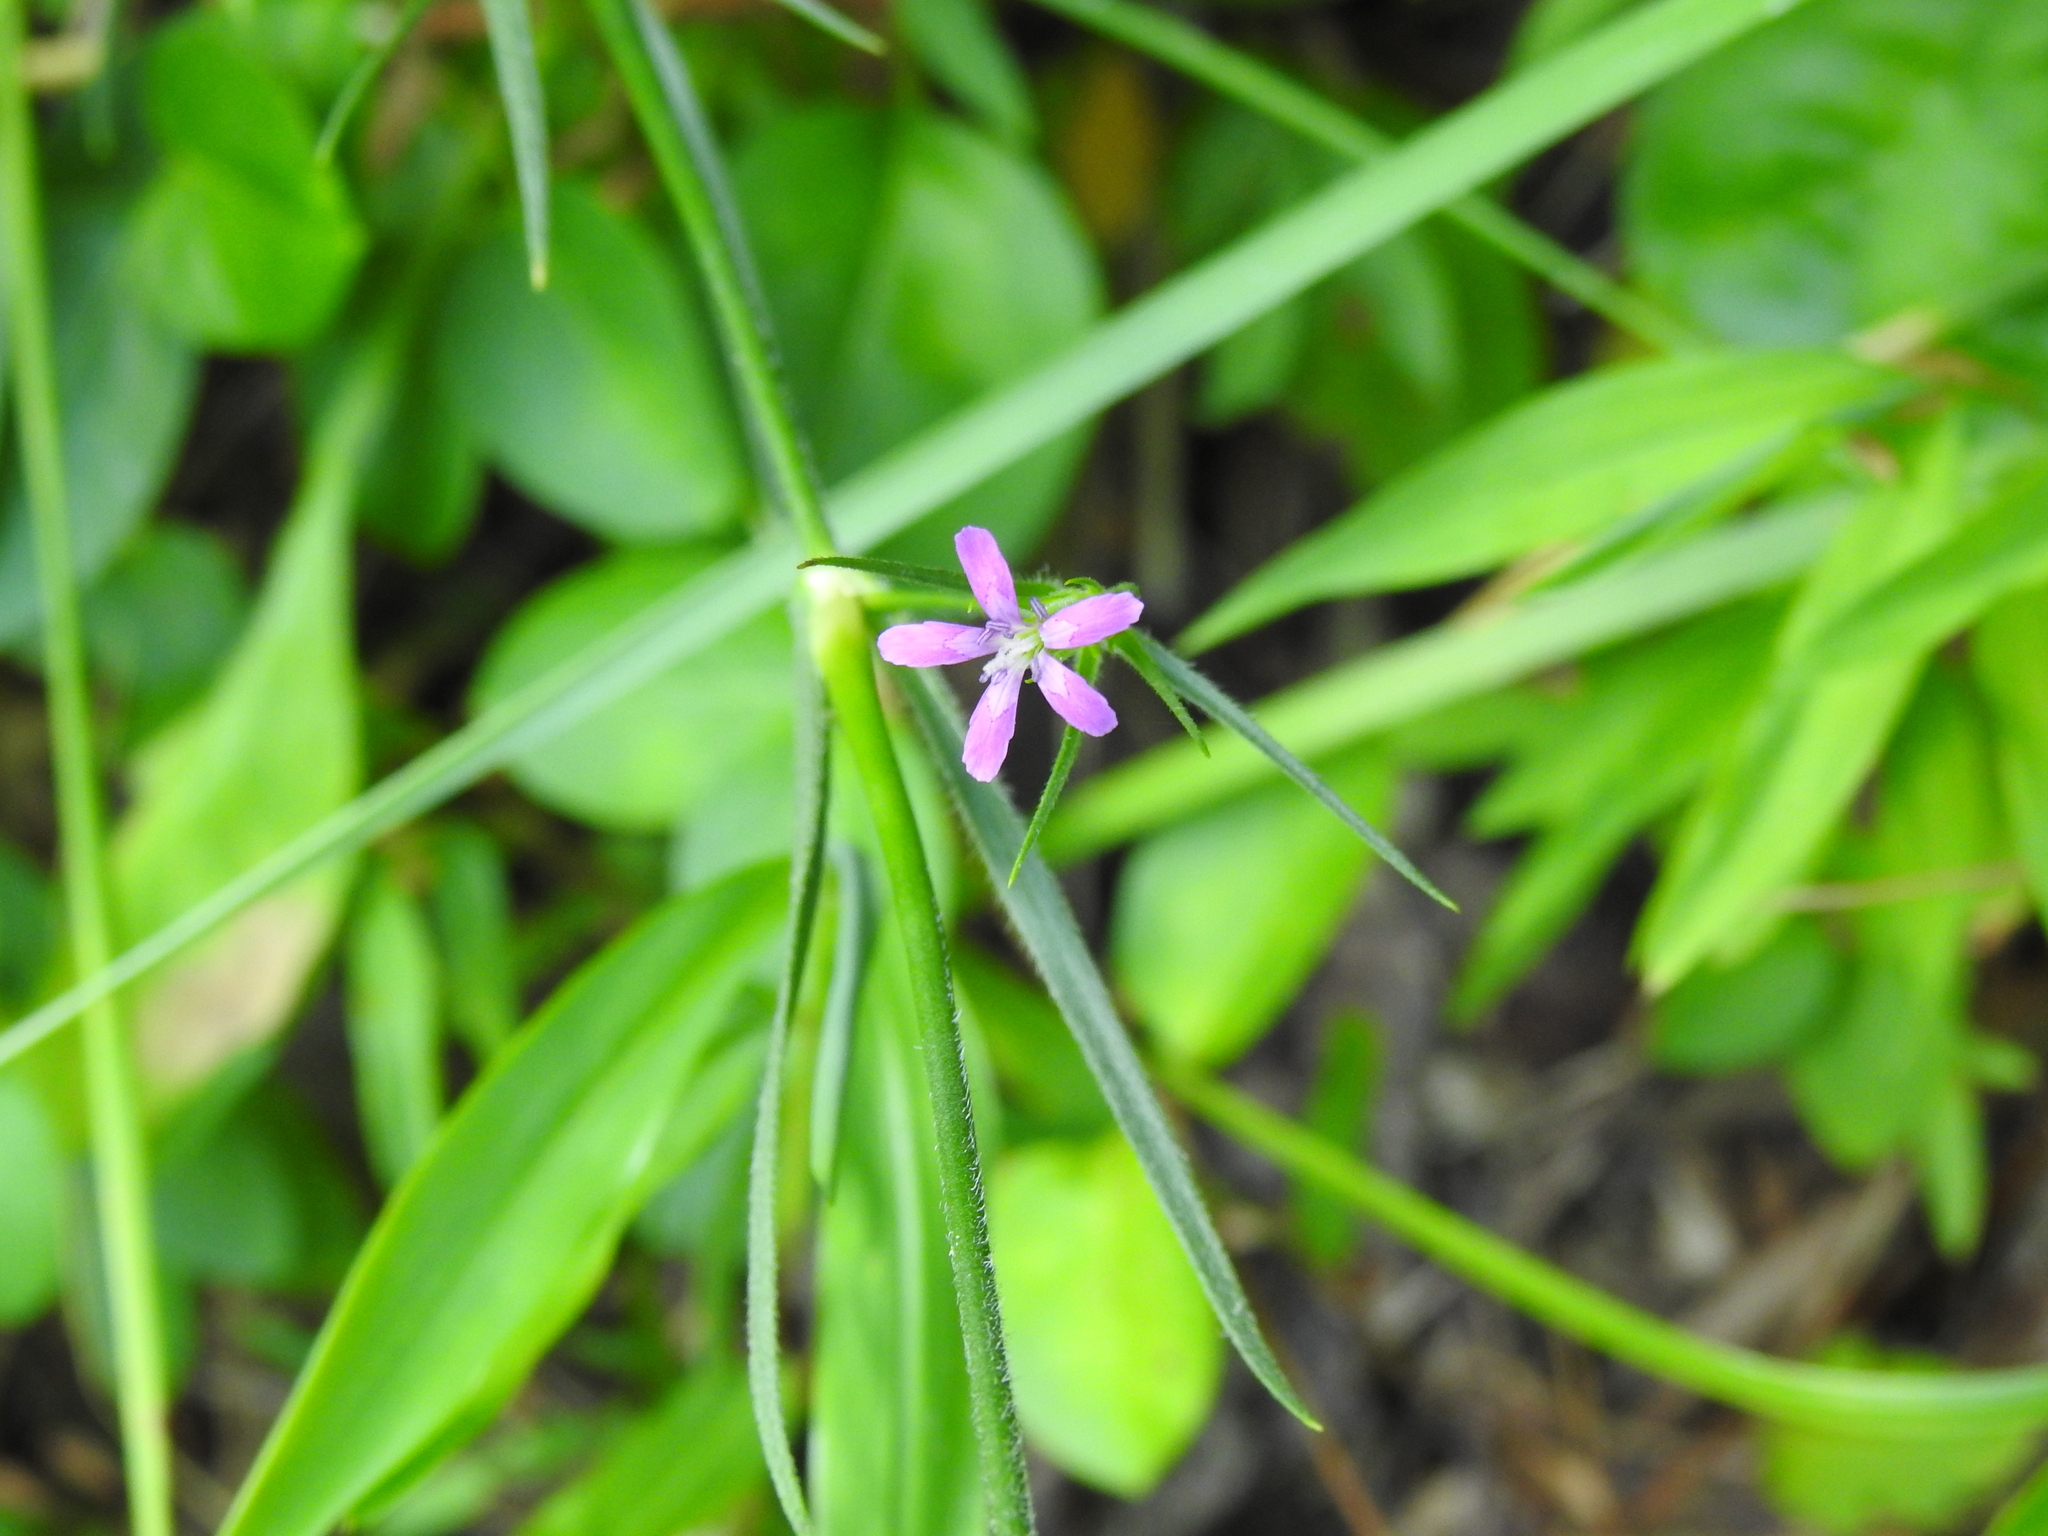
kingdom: Plantae
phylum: Tracheophyta
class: Magnoliopsida
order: Caryophyllales
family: Caryophyllaceae
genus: Dianthus
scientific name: Dianthus armeria
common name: Deptford pink
